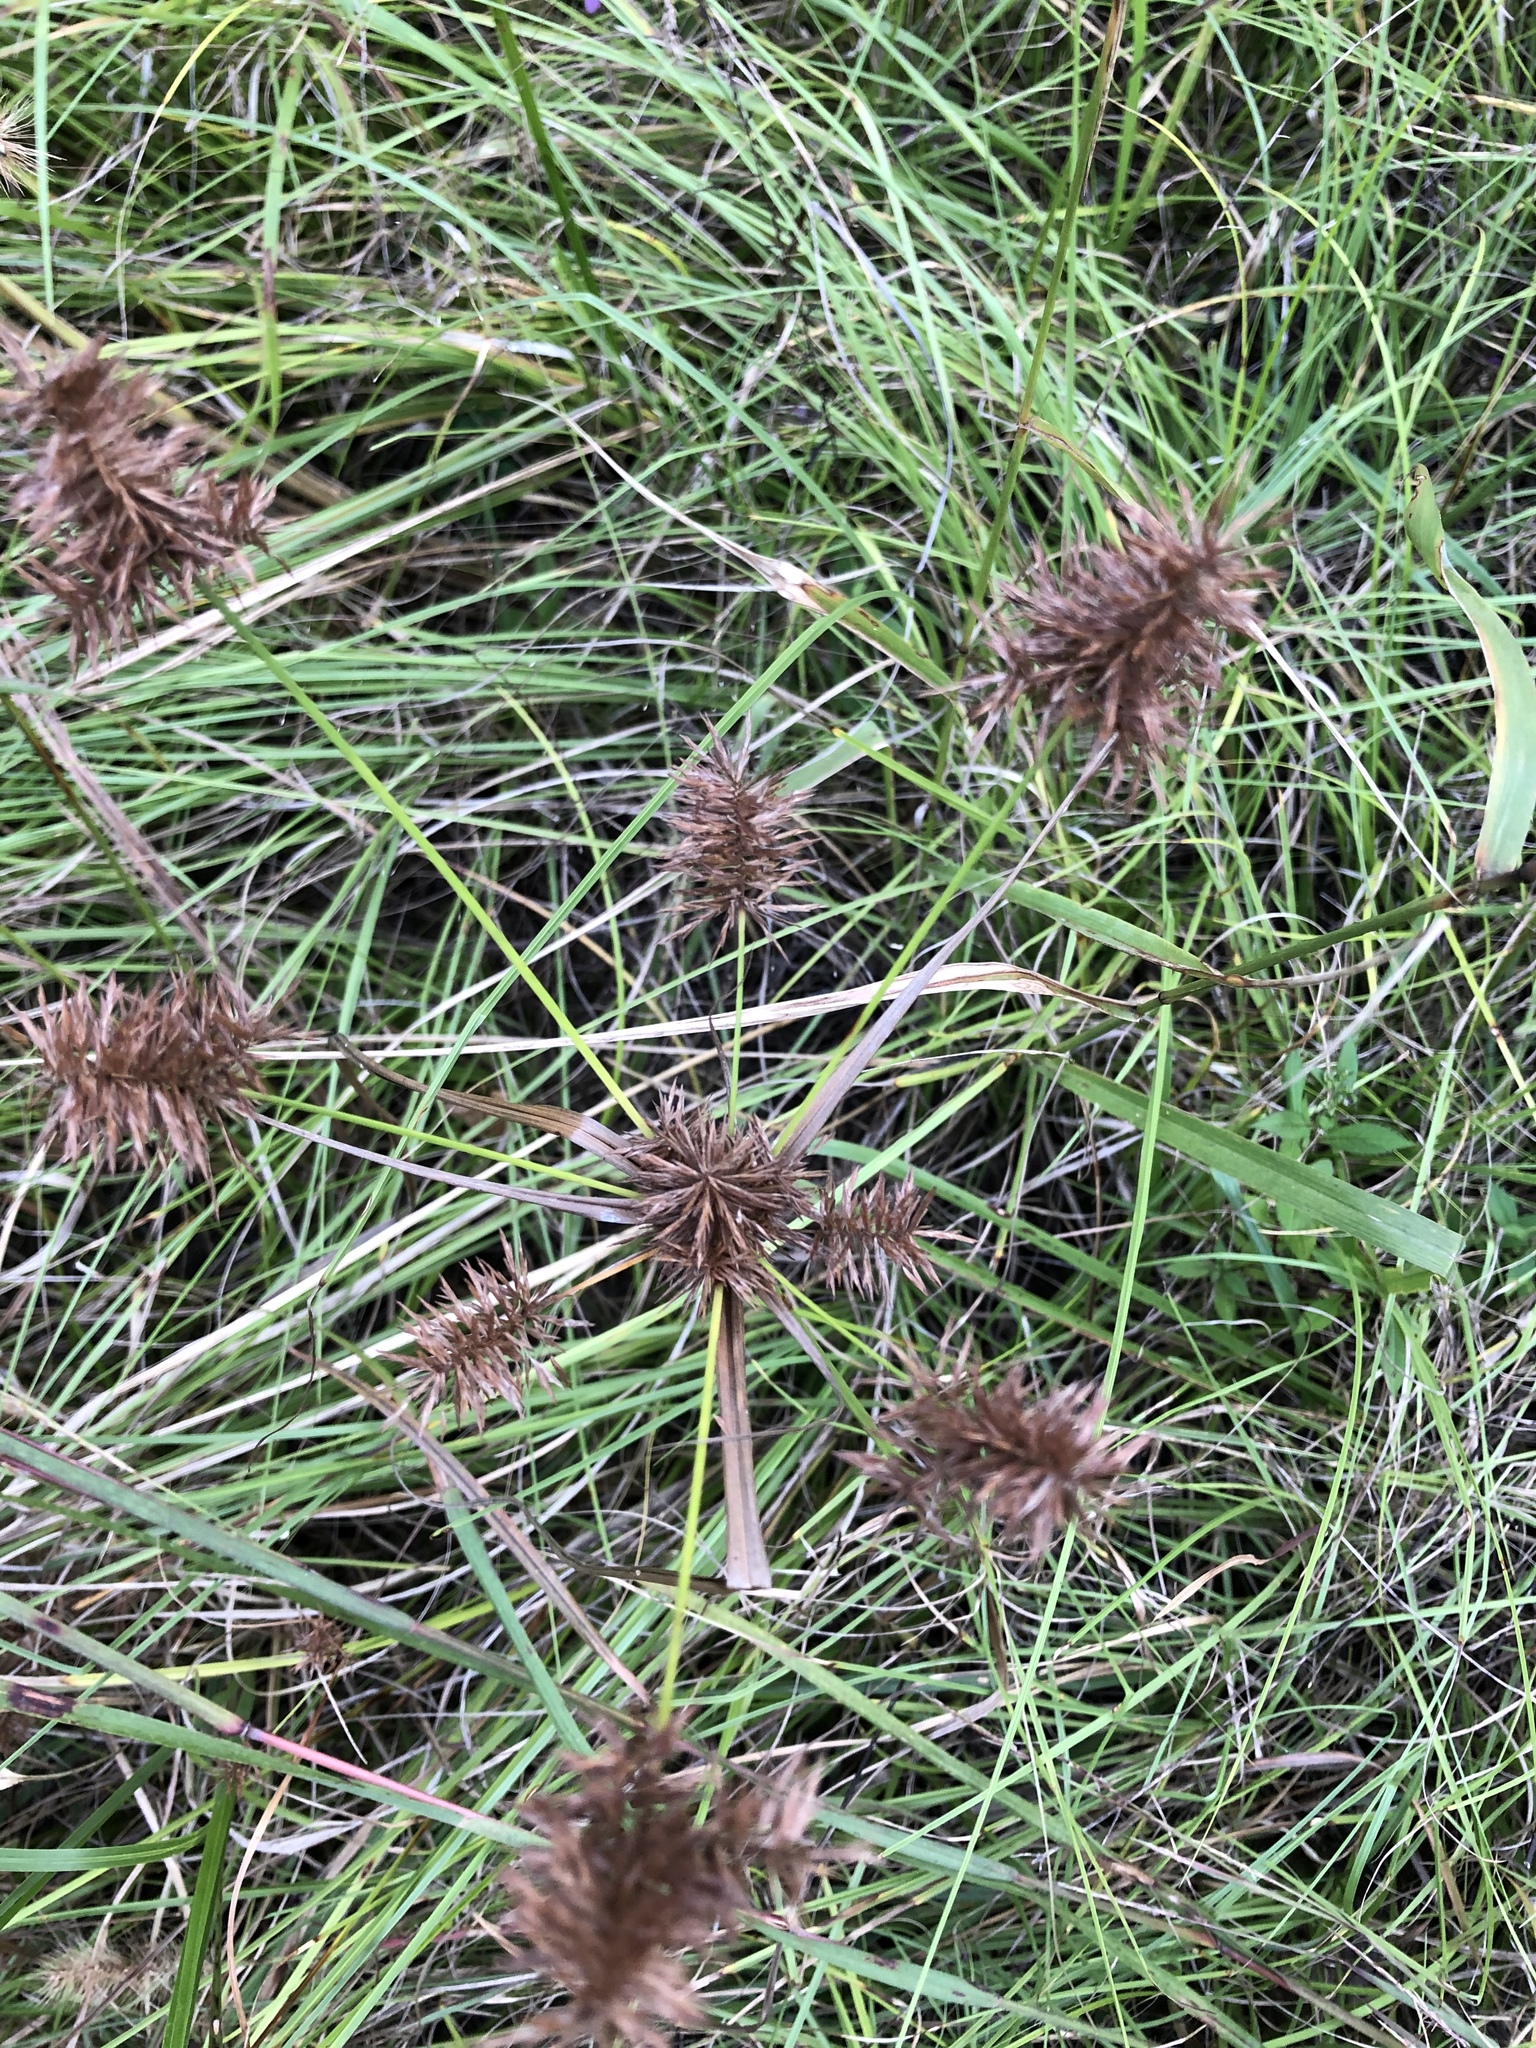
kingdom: Plantae
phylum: Tracheophyta
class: Liliopsida
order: Poales
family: Cyperaceae
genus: Cyperus
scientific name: Cyperus strigosus
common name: False nutsedge
